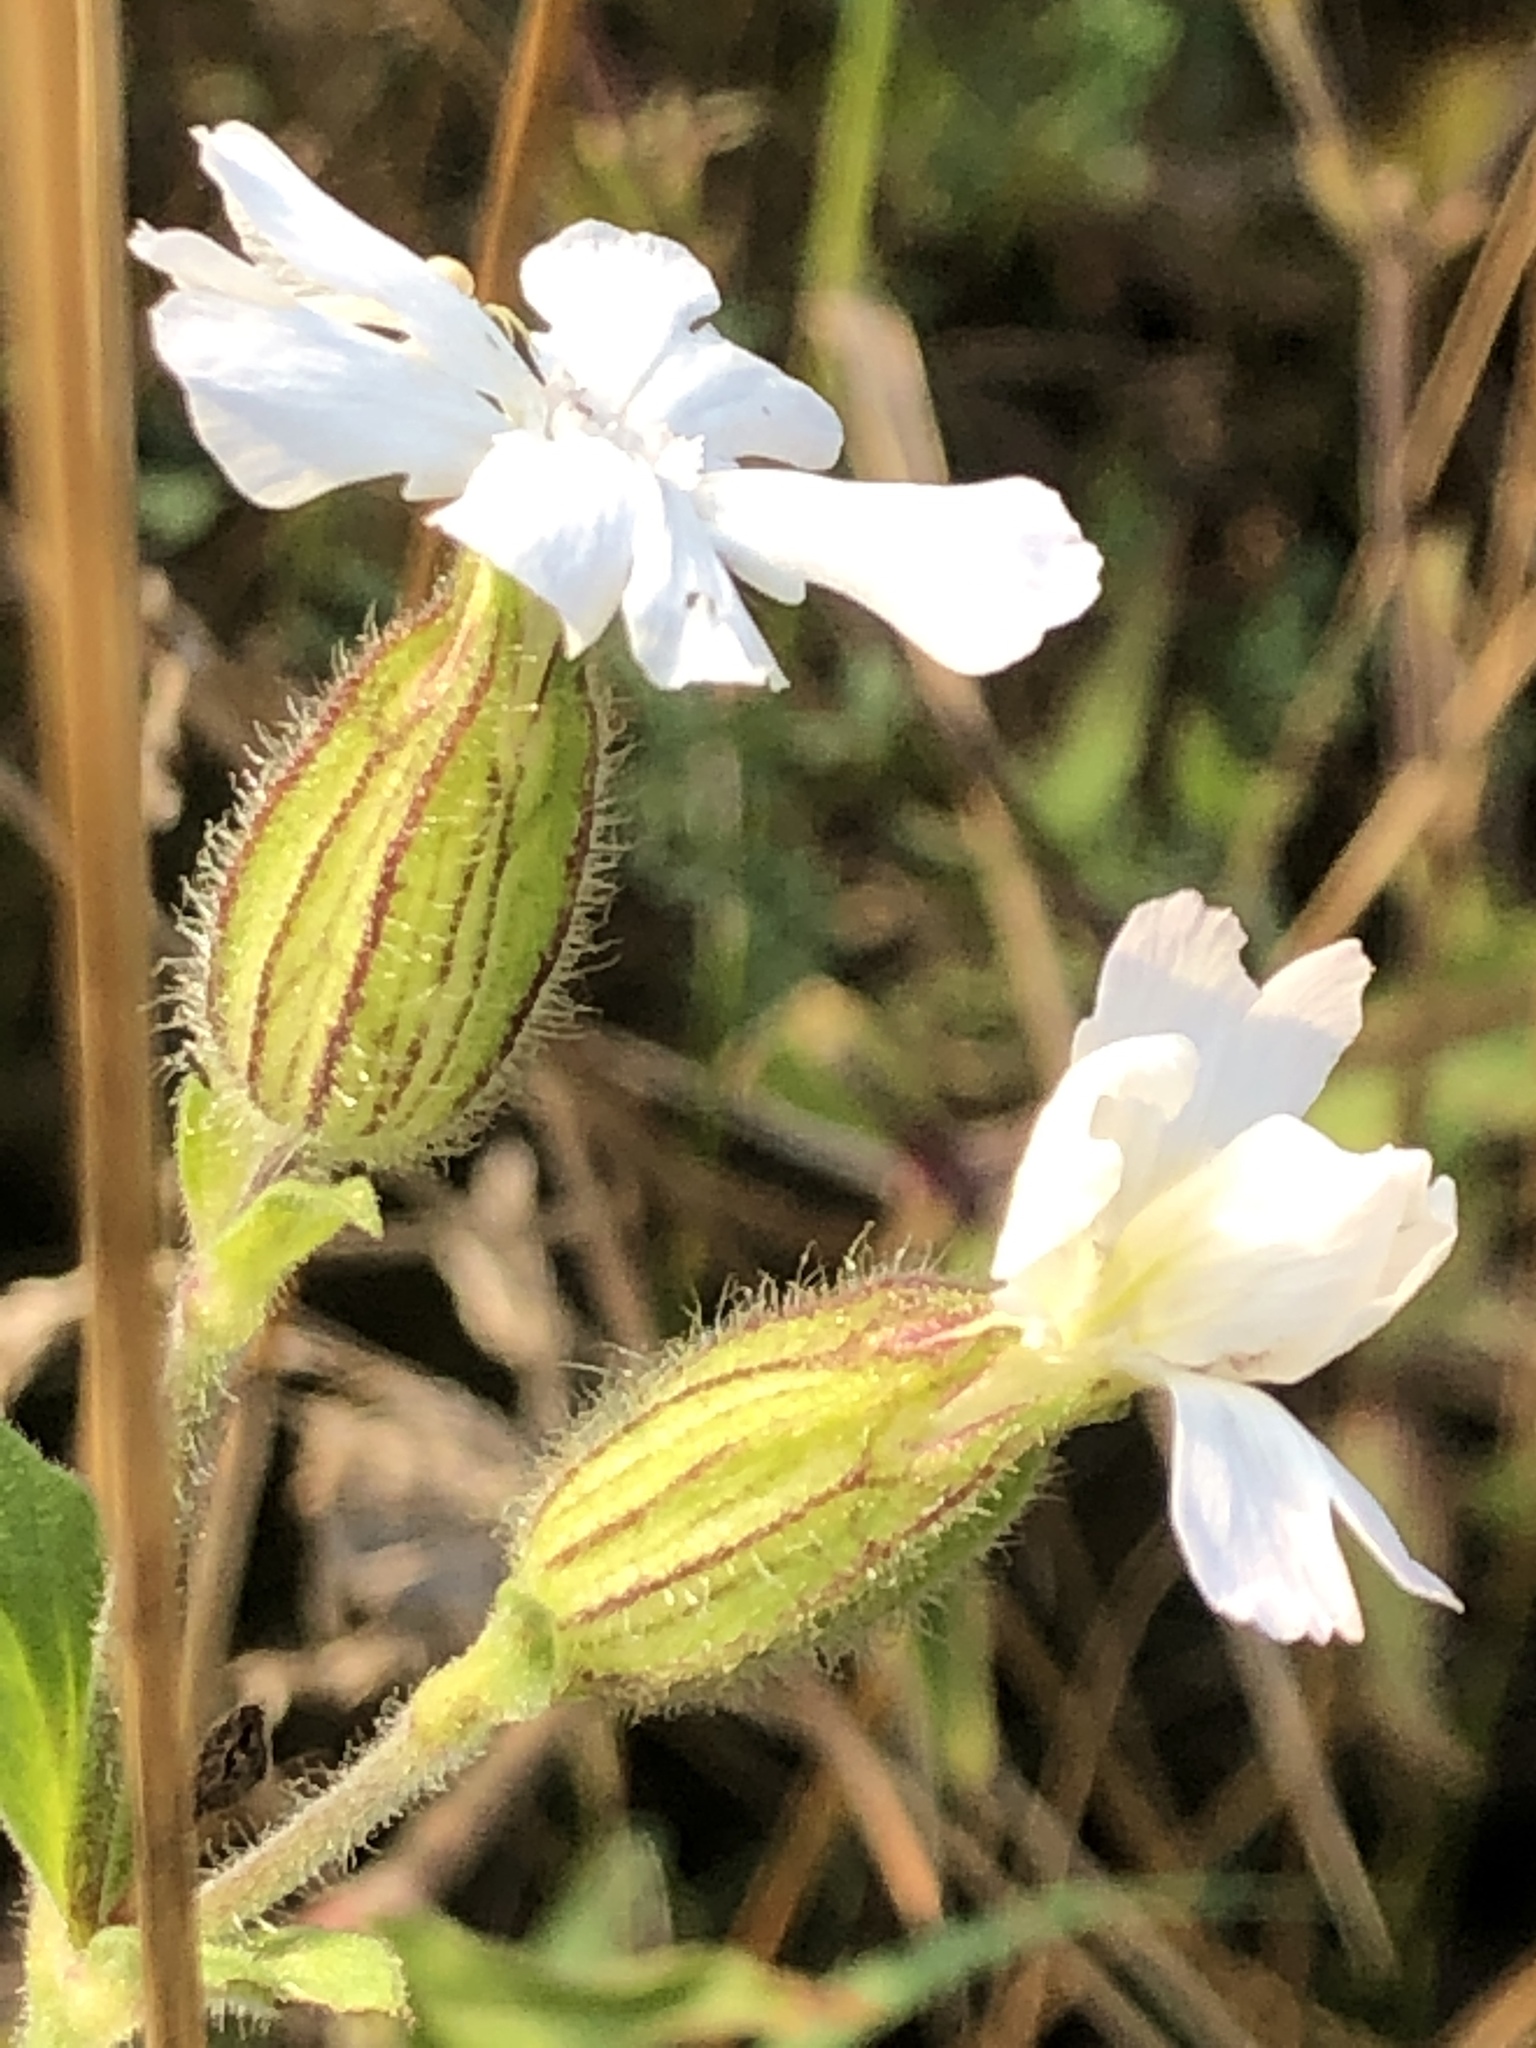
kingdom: Plantae
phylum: Tracheophyta
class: Magnoliopsida
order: Caryophyllales
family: Caryophyllaceae
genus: Silene
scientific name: Silene latifolia
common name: White campion
